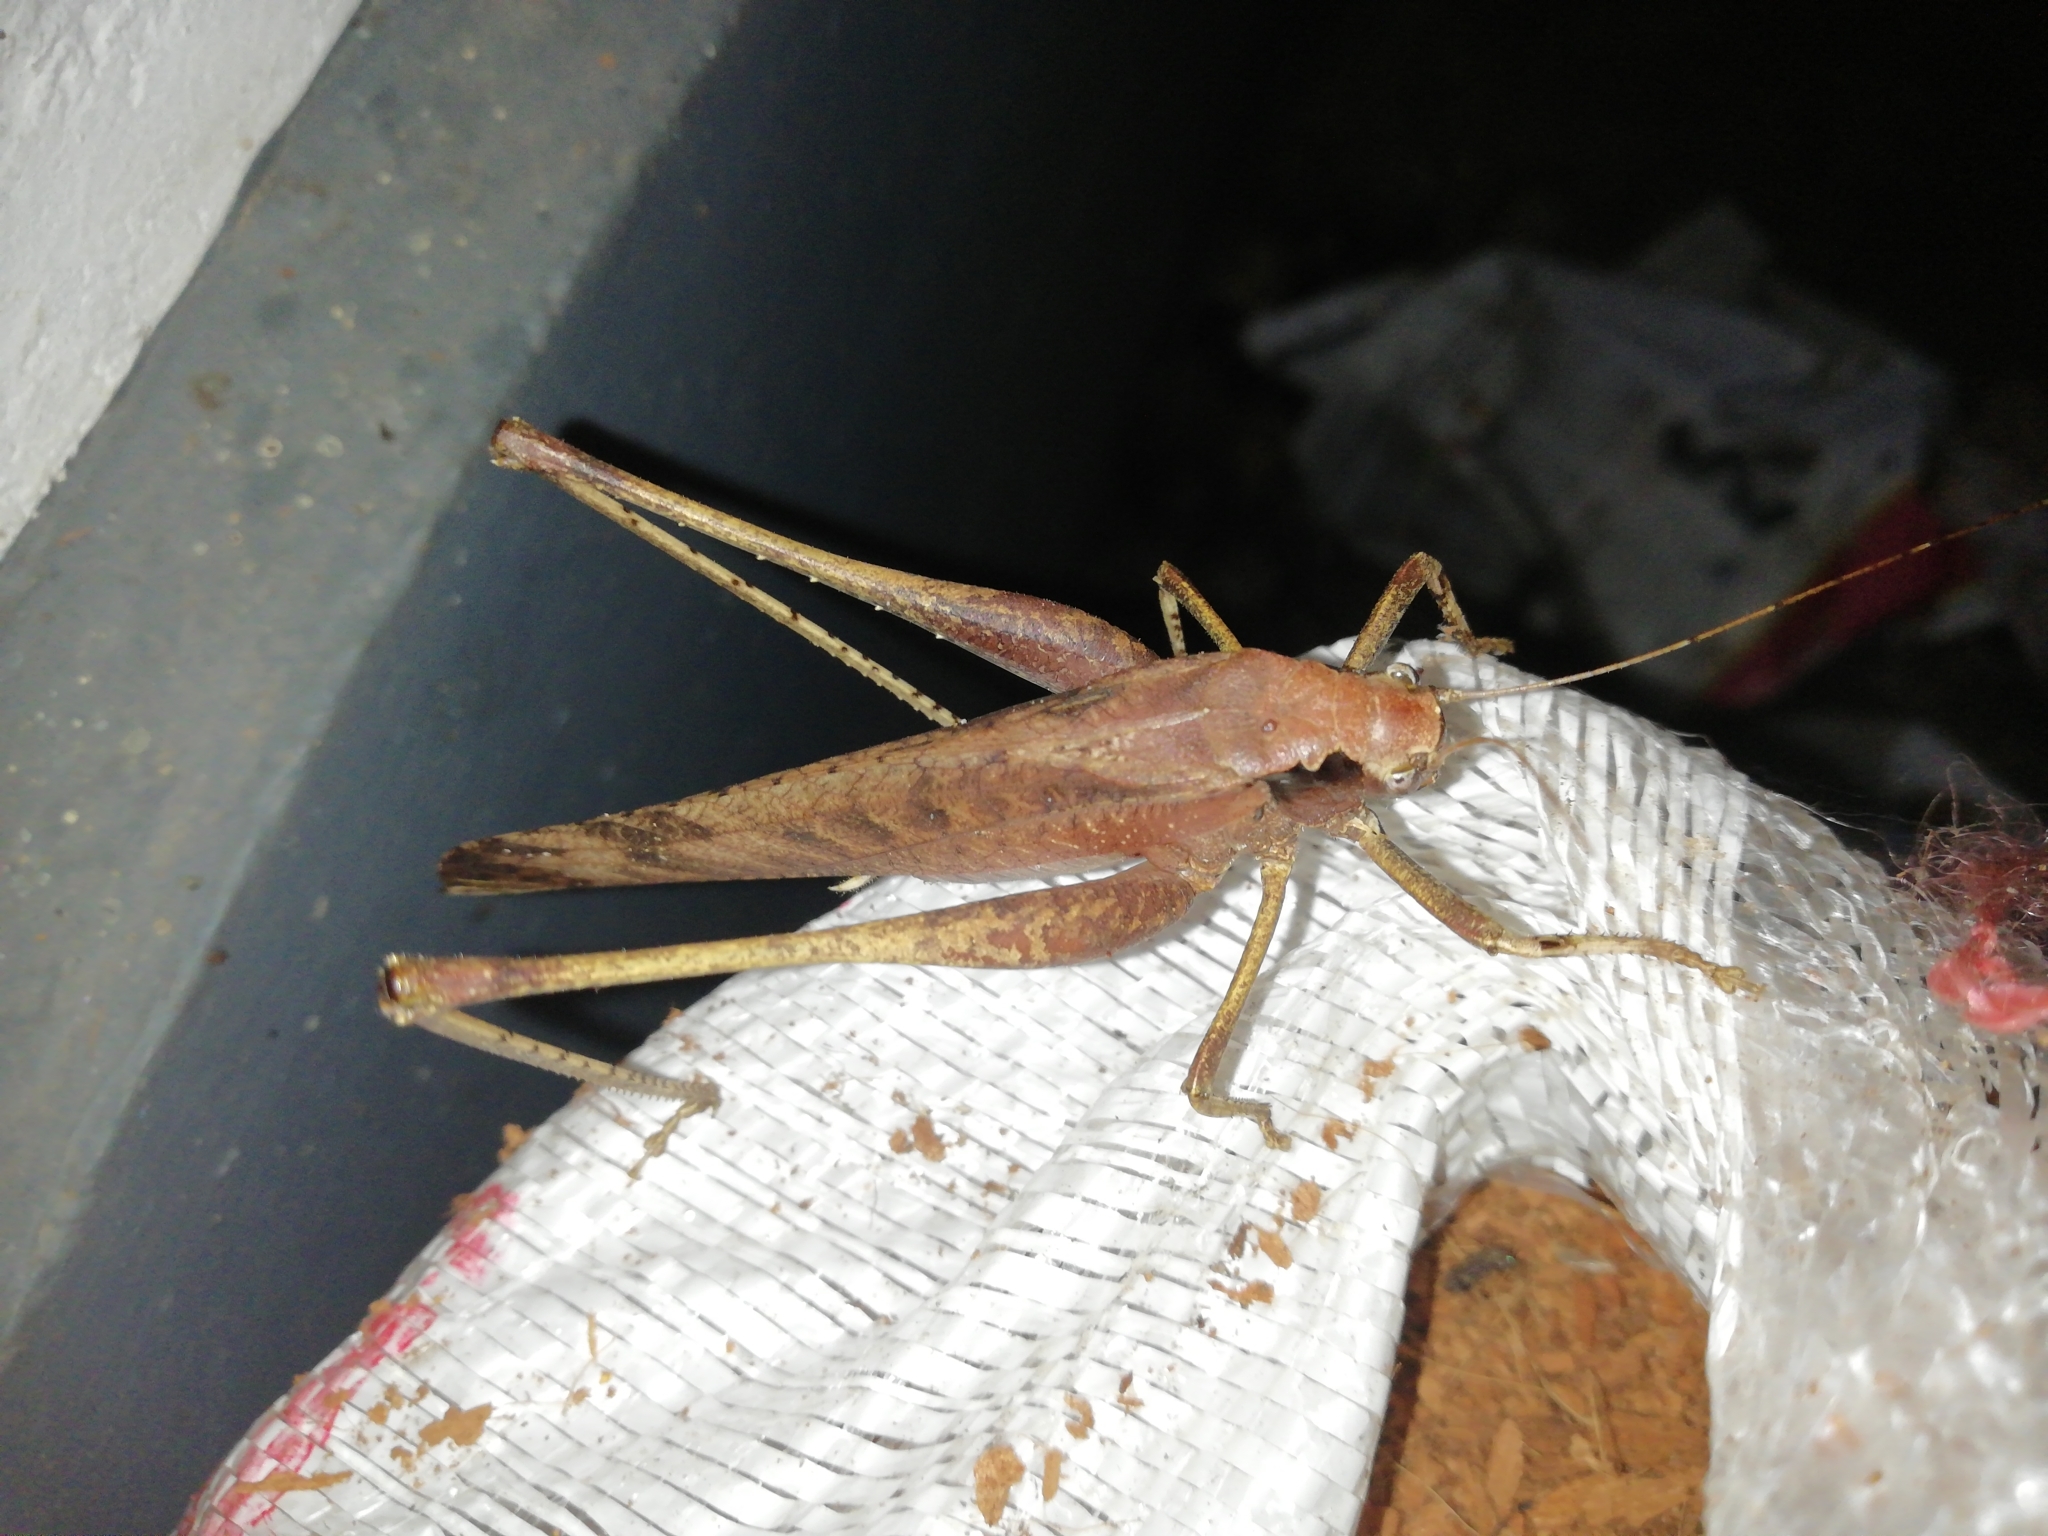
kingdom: Animalia
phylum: Arthropoda
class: Insecta
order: Orthoptera
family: Tettigoniidae
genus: Mecopoda
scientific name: Mecopoda elongata
